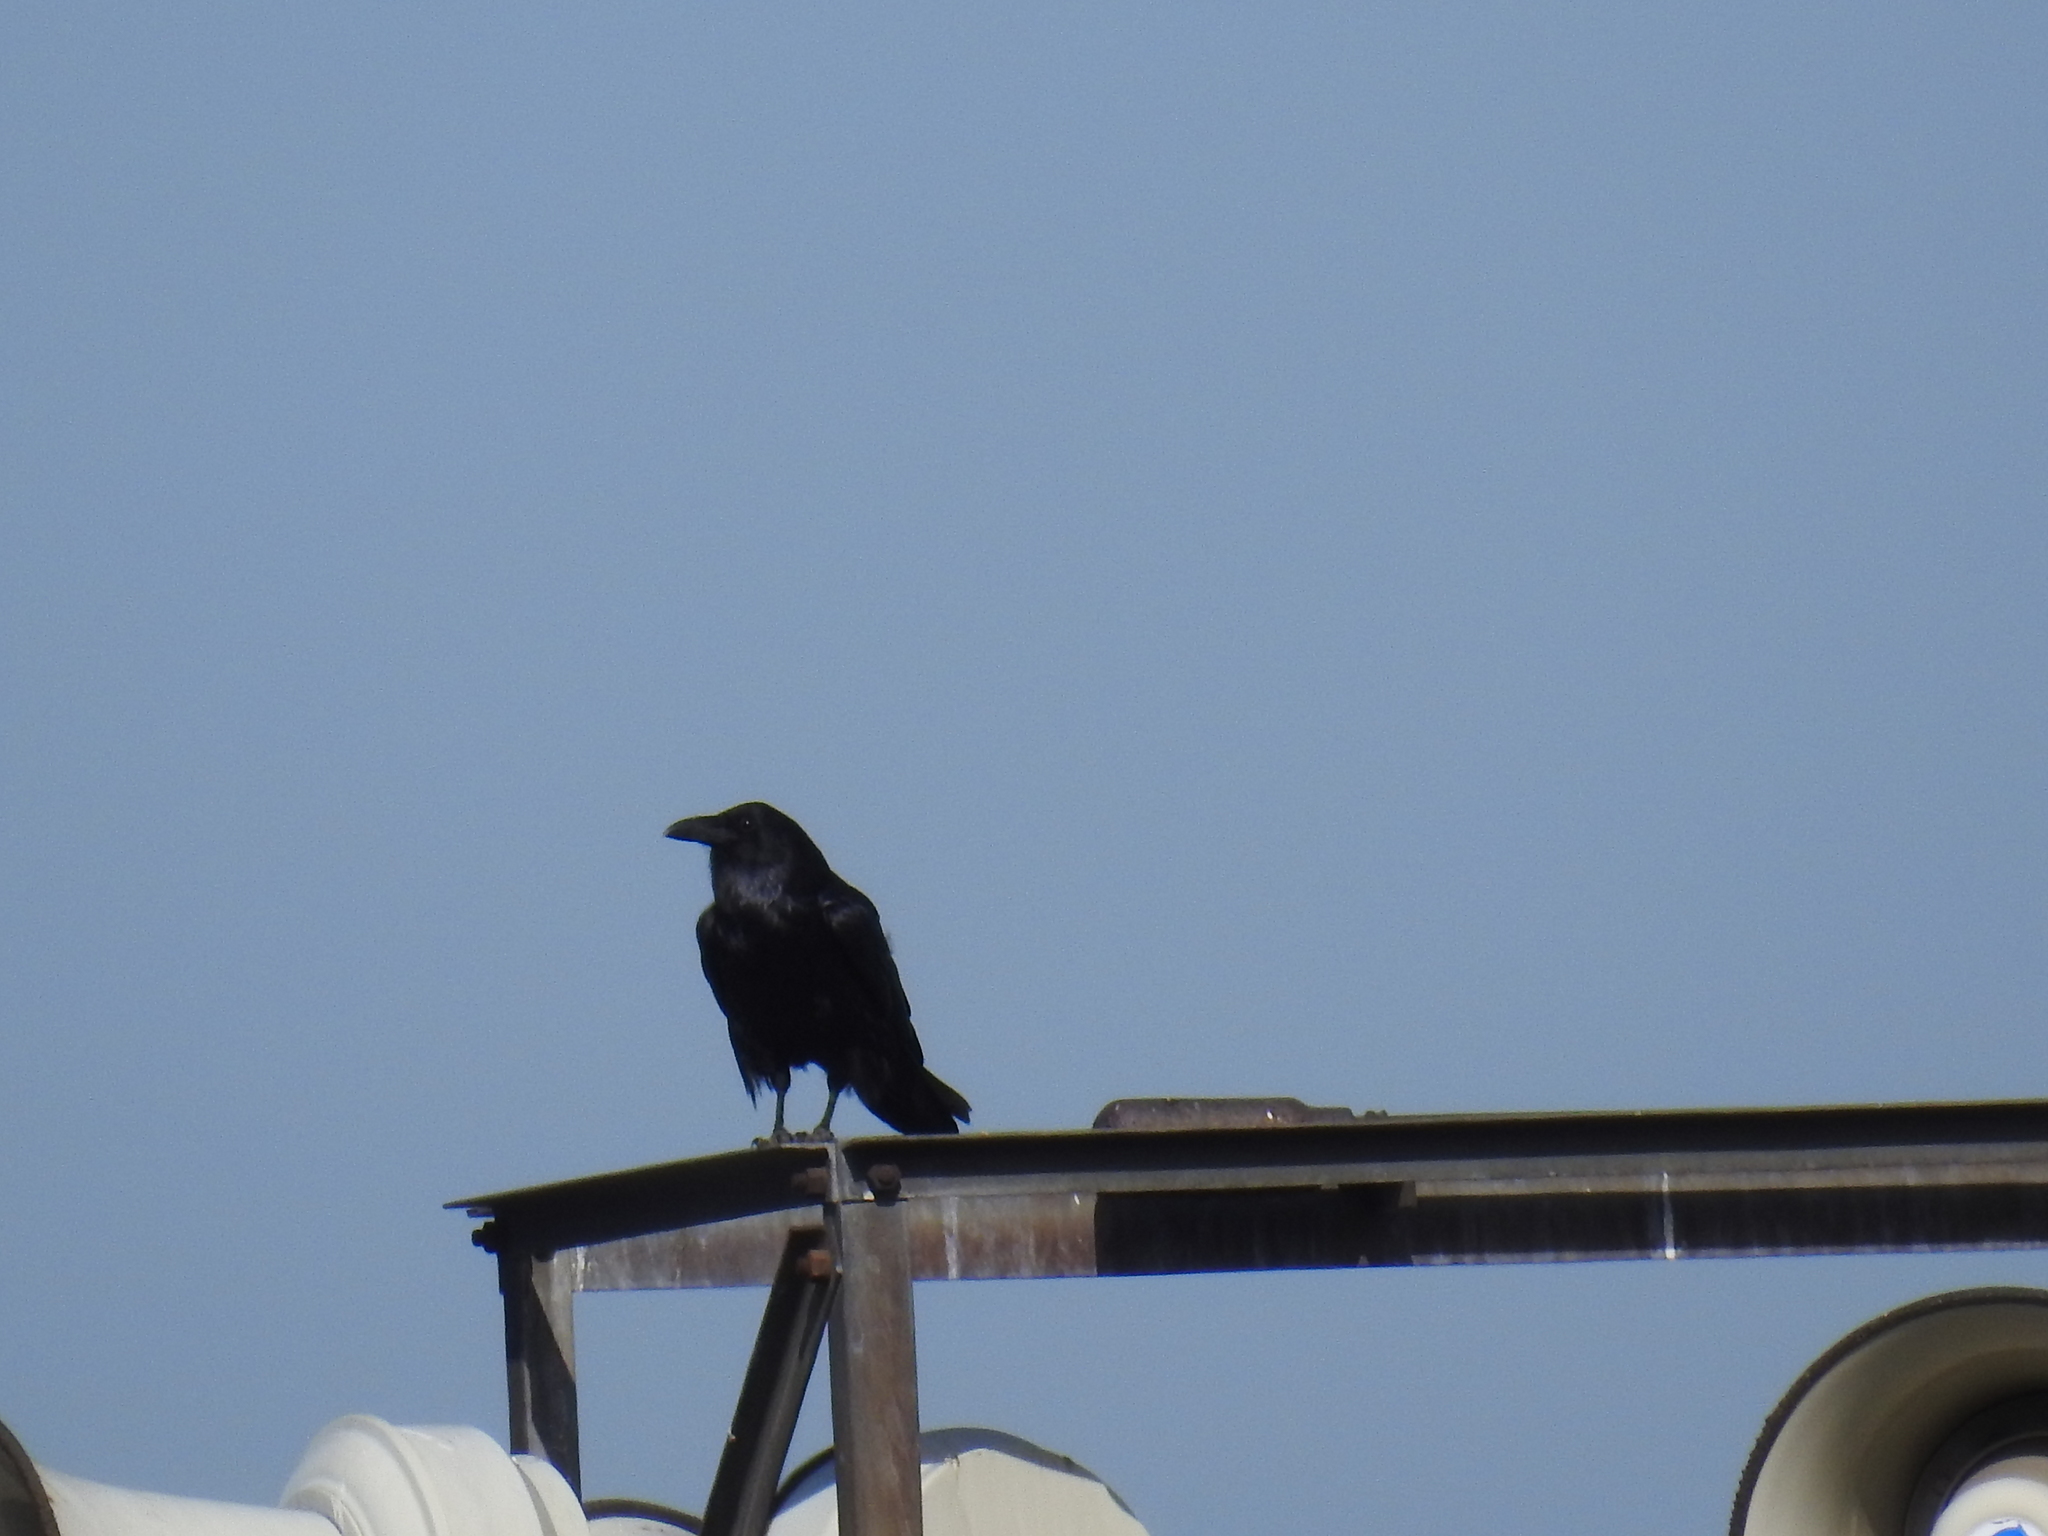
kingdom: Animalia
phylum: Chordata
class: Aves
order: Passeriformes
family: Corvidae
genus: Corvus
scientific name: Corvus corax
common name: Common raven
